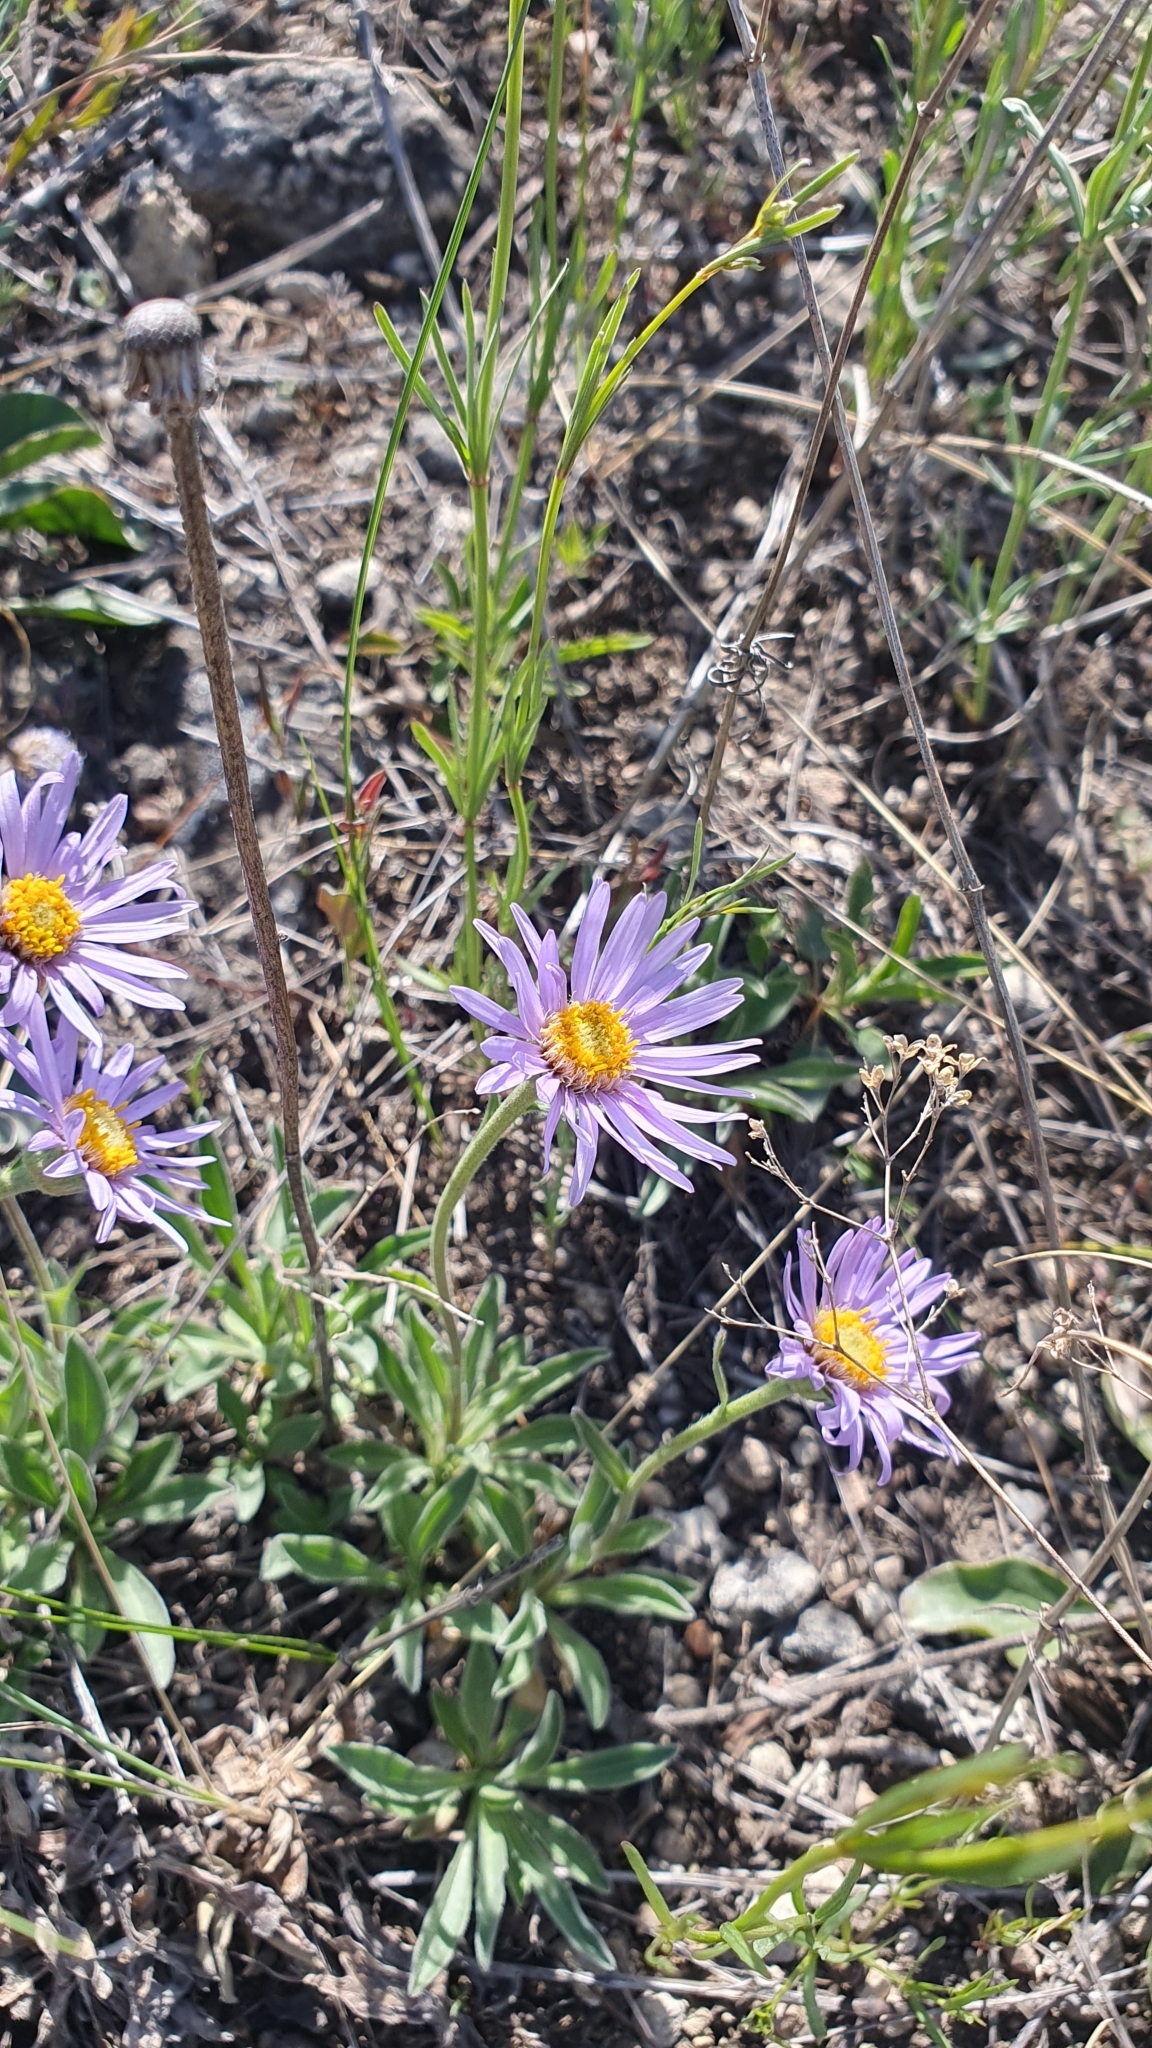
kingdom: Plantae
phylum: Tracheophyta
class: Magnoliopsida
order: Asterales
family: Asteraceae
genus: Aster
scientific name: Aster alpinus
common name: Alpine aster
